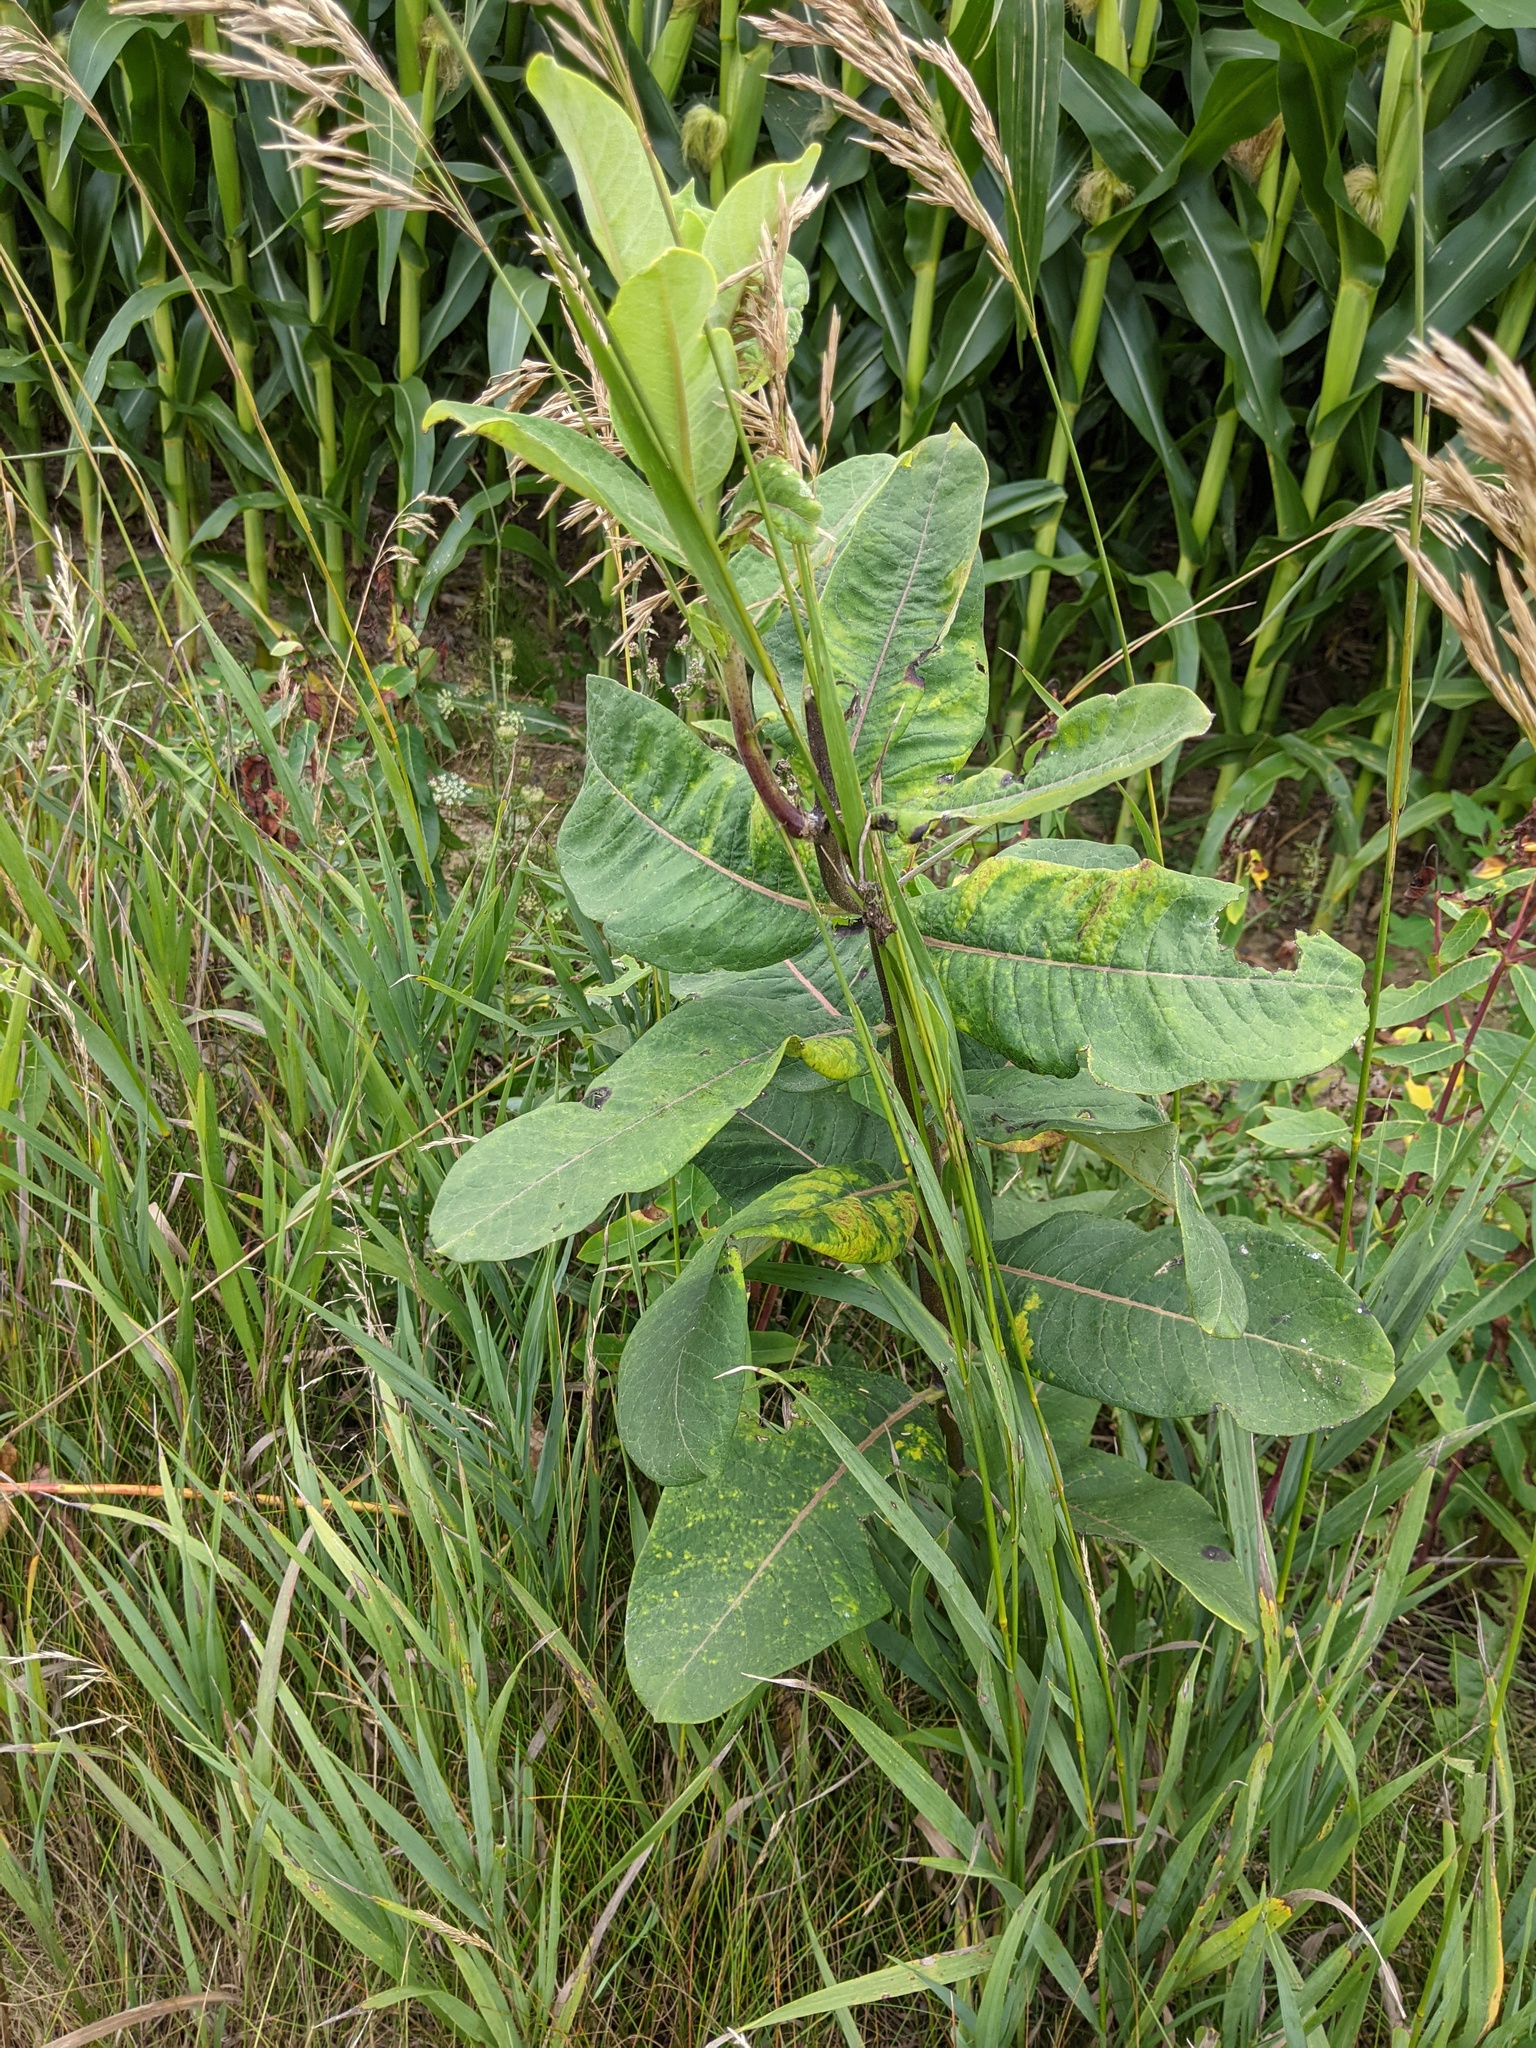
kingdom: Plantae
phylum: Tracheophyta
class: Magnoliopsida
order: Gentianales
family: Apocynaceae
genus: Asclepias
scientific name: Asclepias syriaca
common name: Common milkweed
